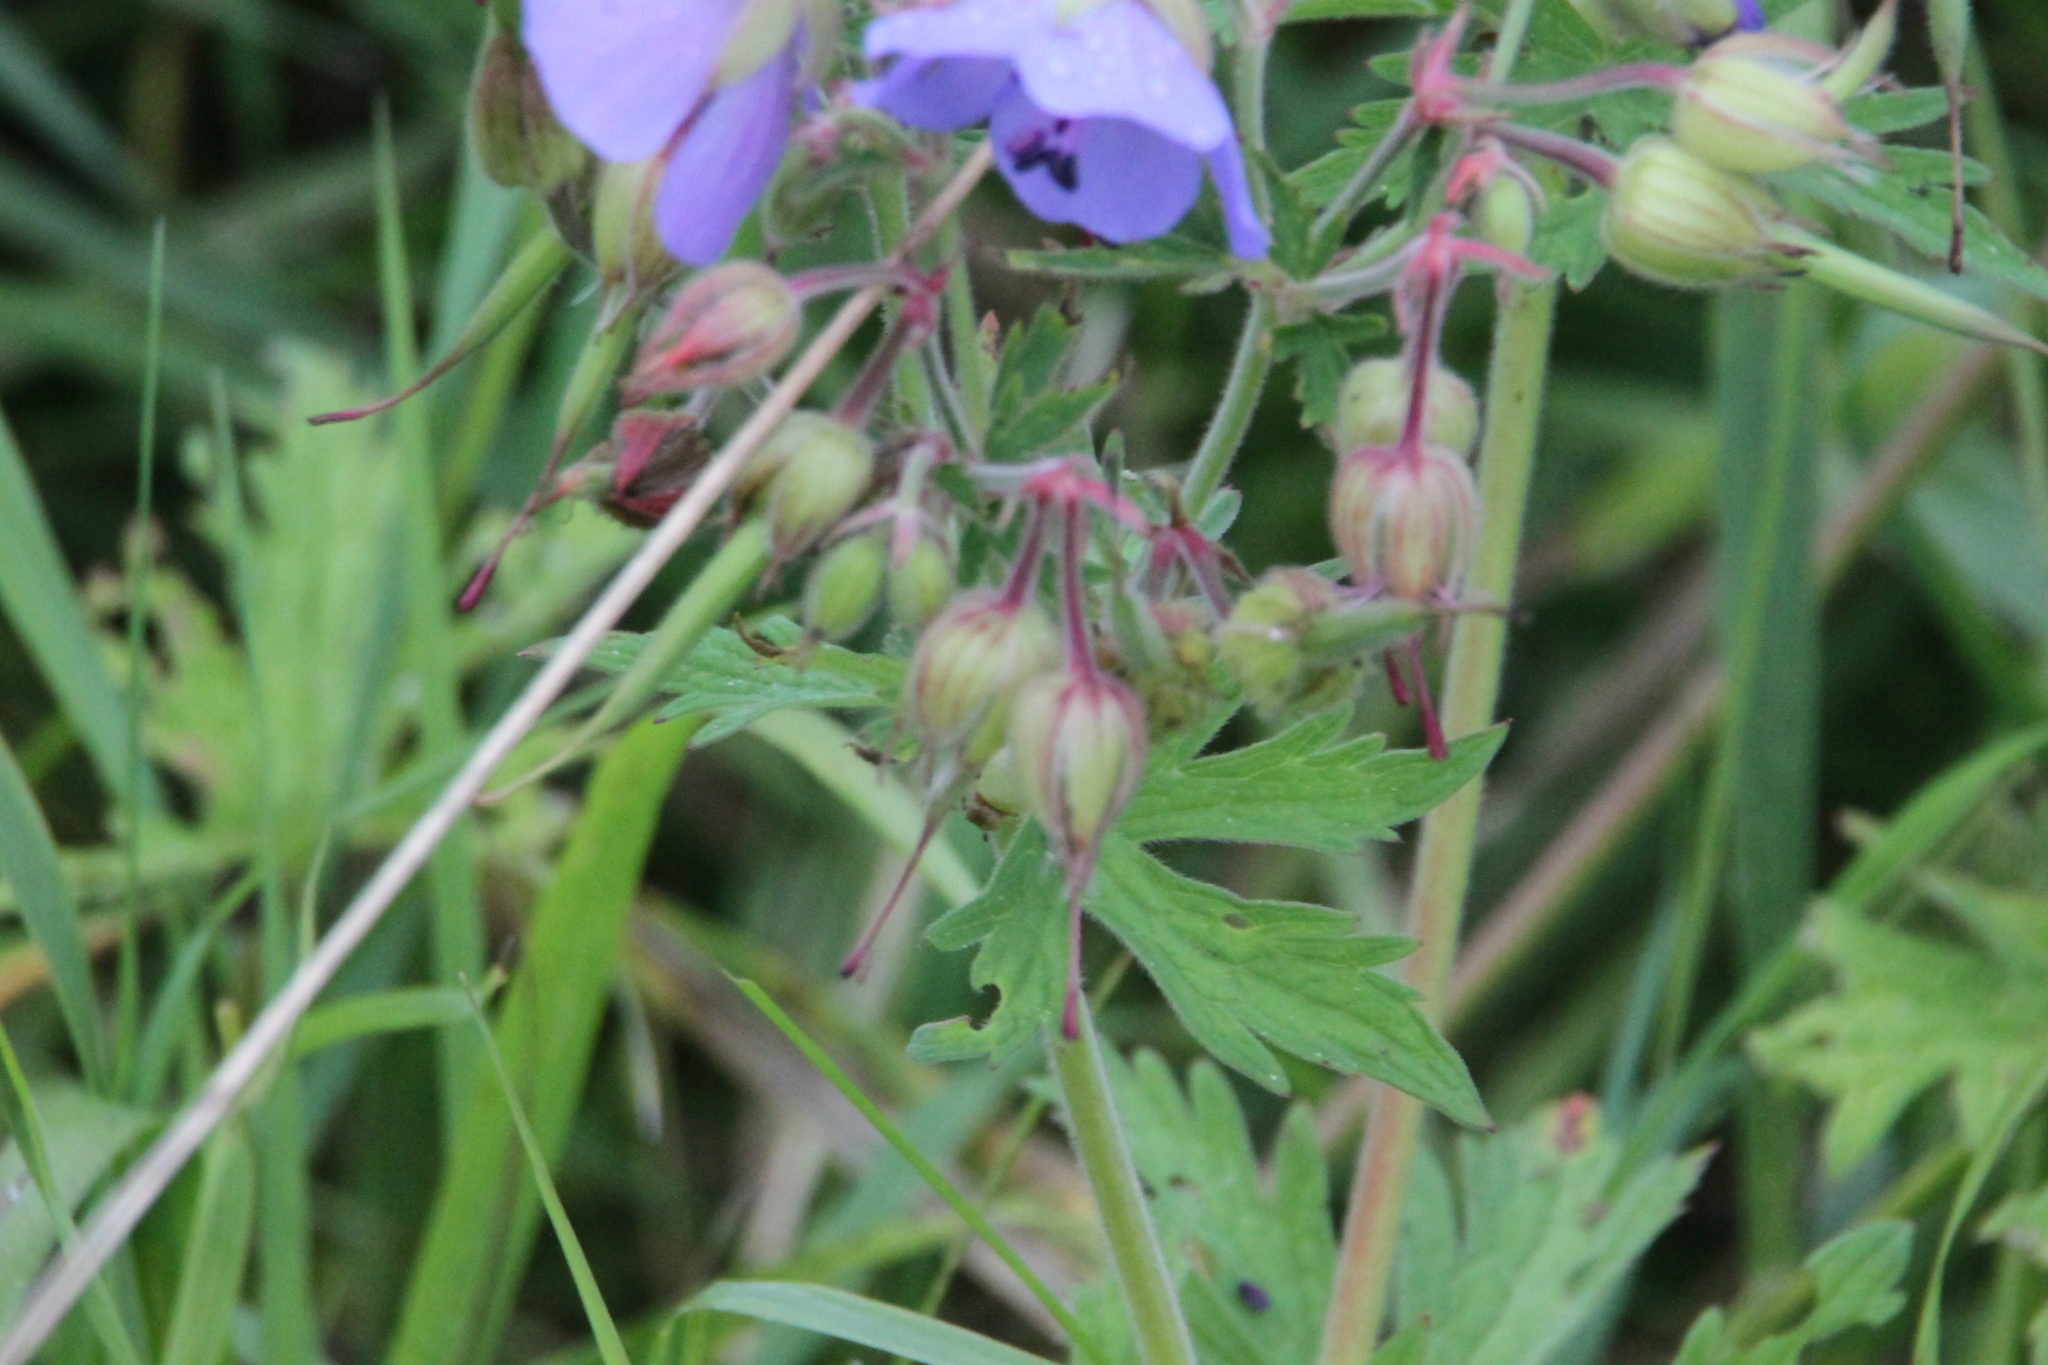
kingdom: Plantae
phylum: Tracheophyta
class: Magnoliopsida
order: Geraniales
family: Geraniaceae
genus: Geranium
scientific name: Geranium pratense
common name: Meadow crane's-bill
